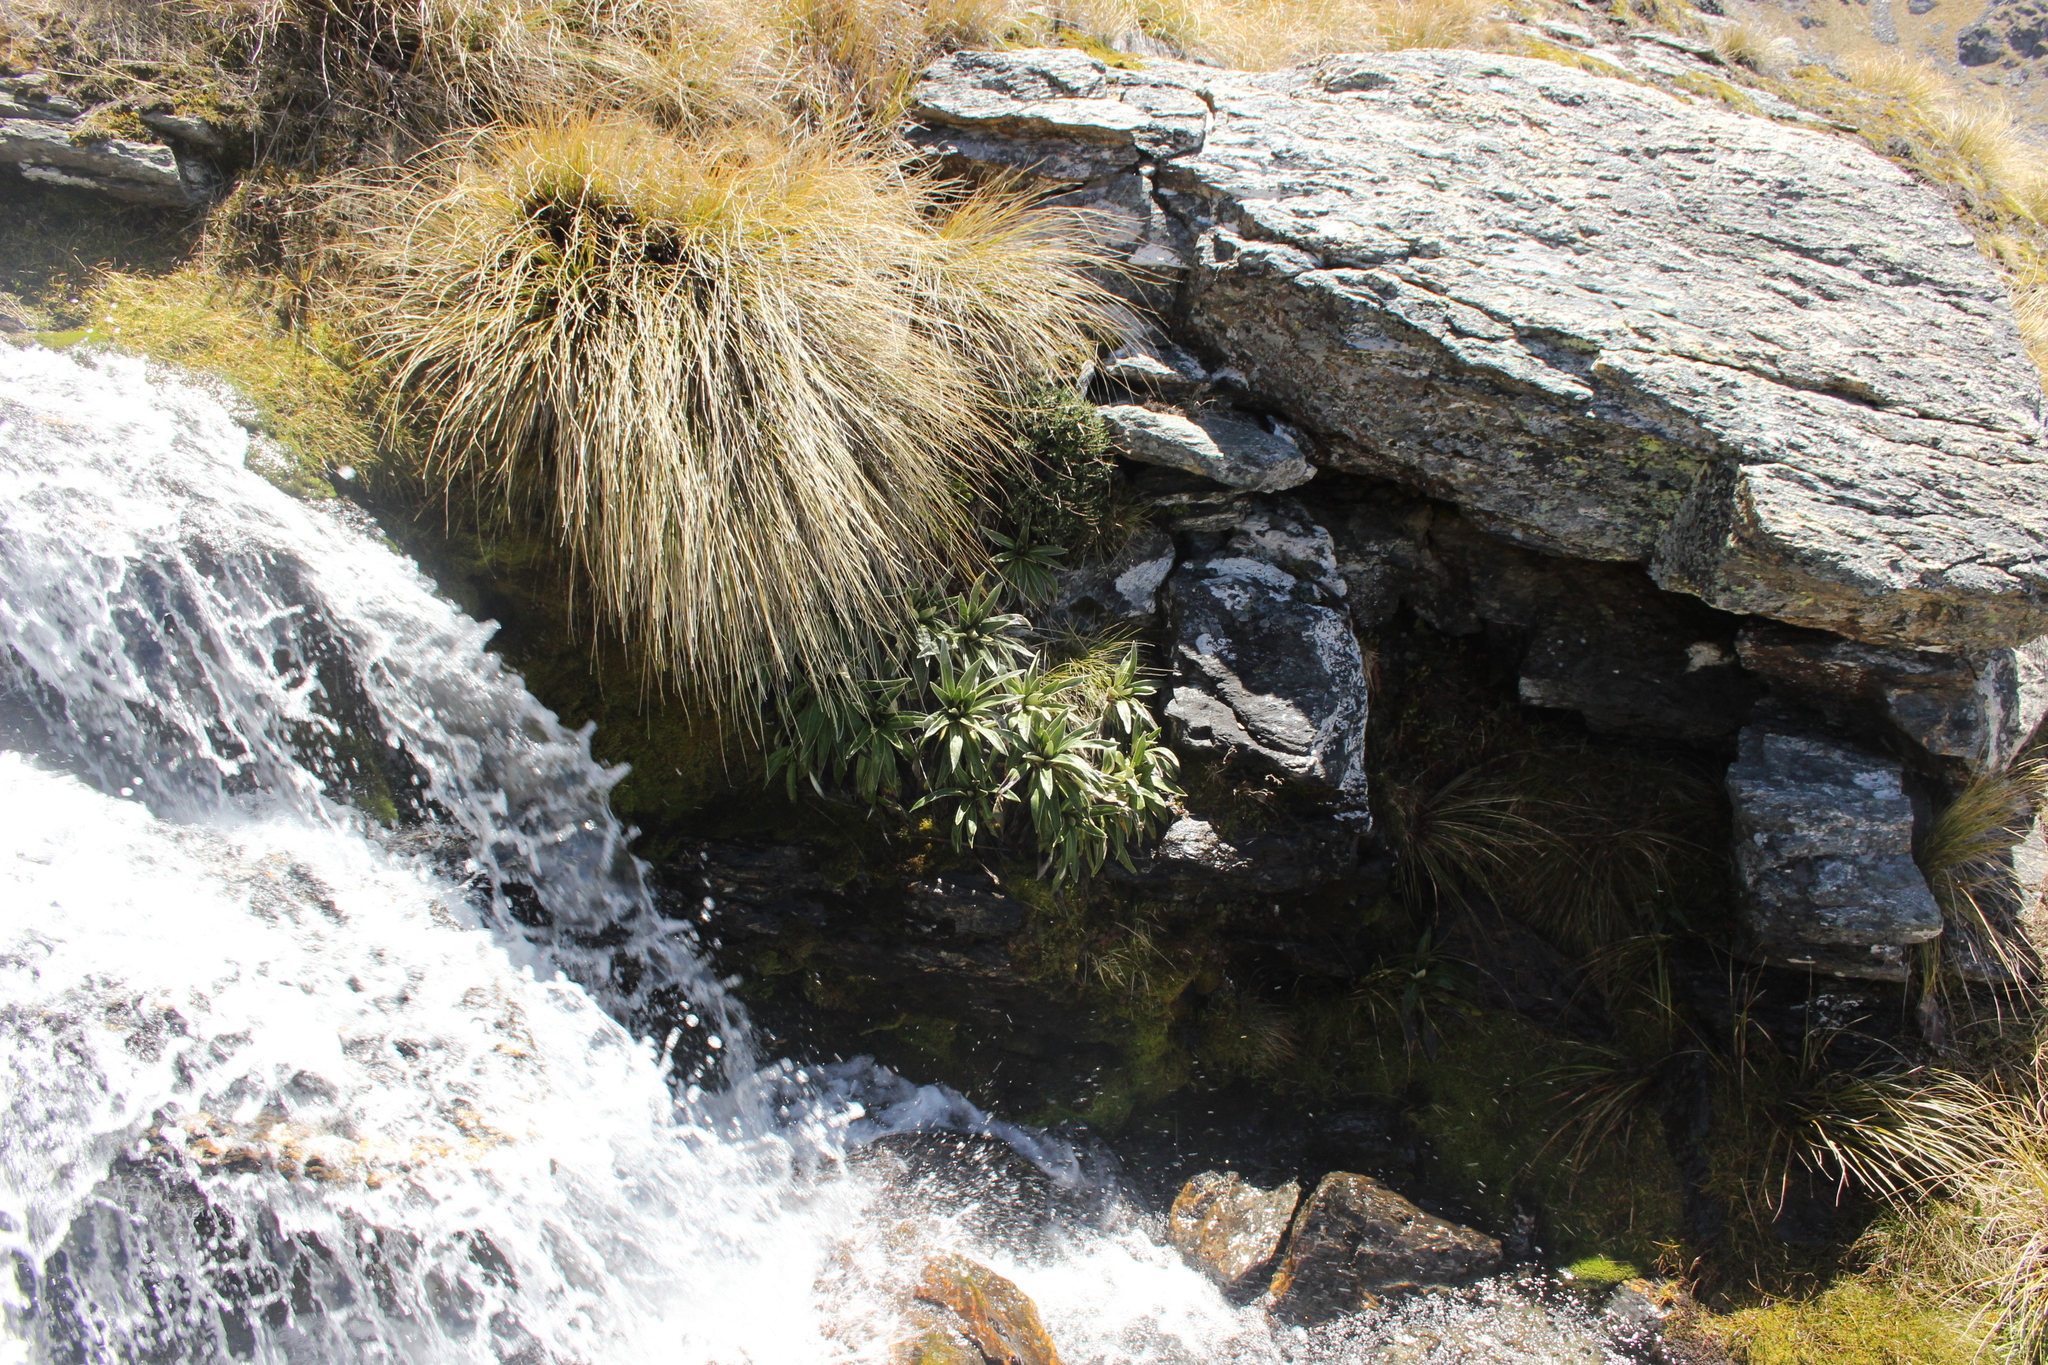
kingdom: Plantae
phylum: Tracheophyta
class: Magnoliopsida
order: Asterales
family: Asteraceae
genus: Celmisia
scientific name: Celmisia verbascifolia
